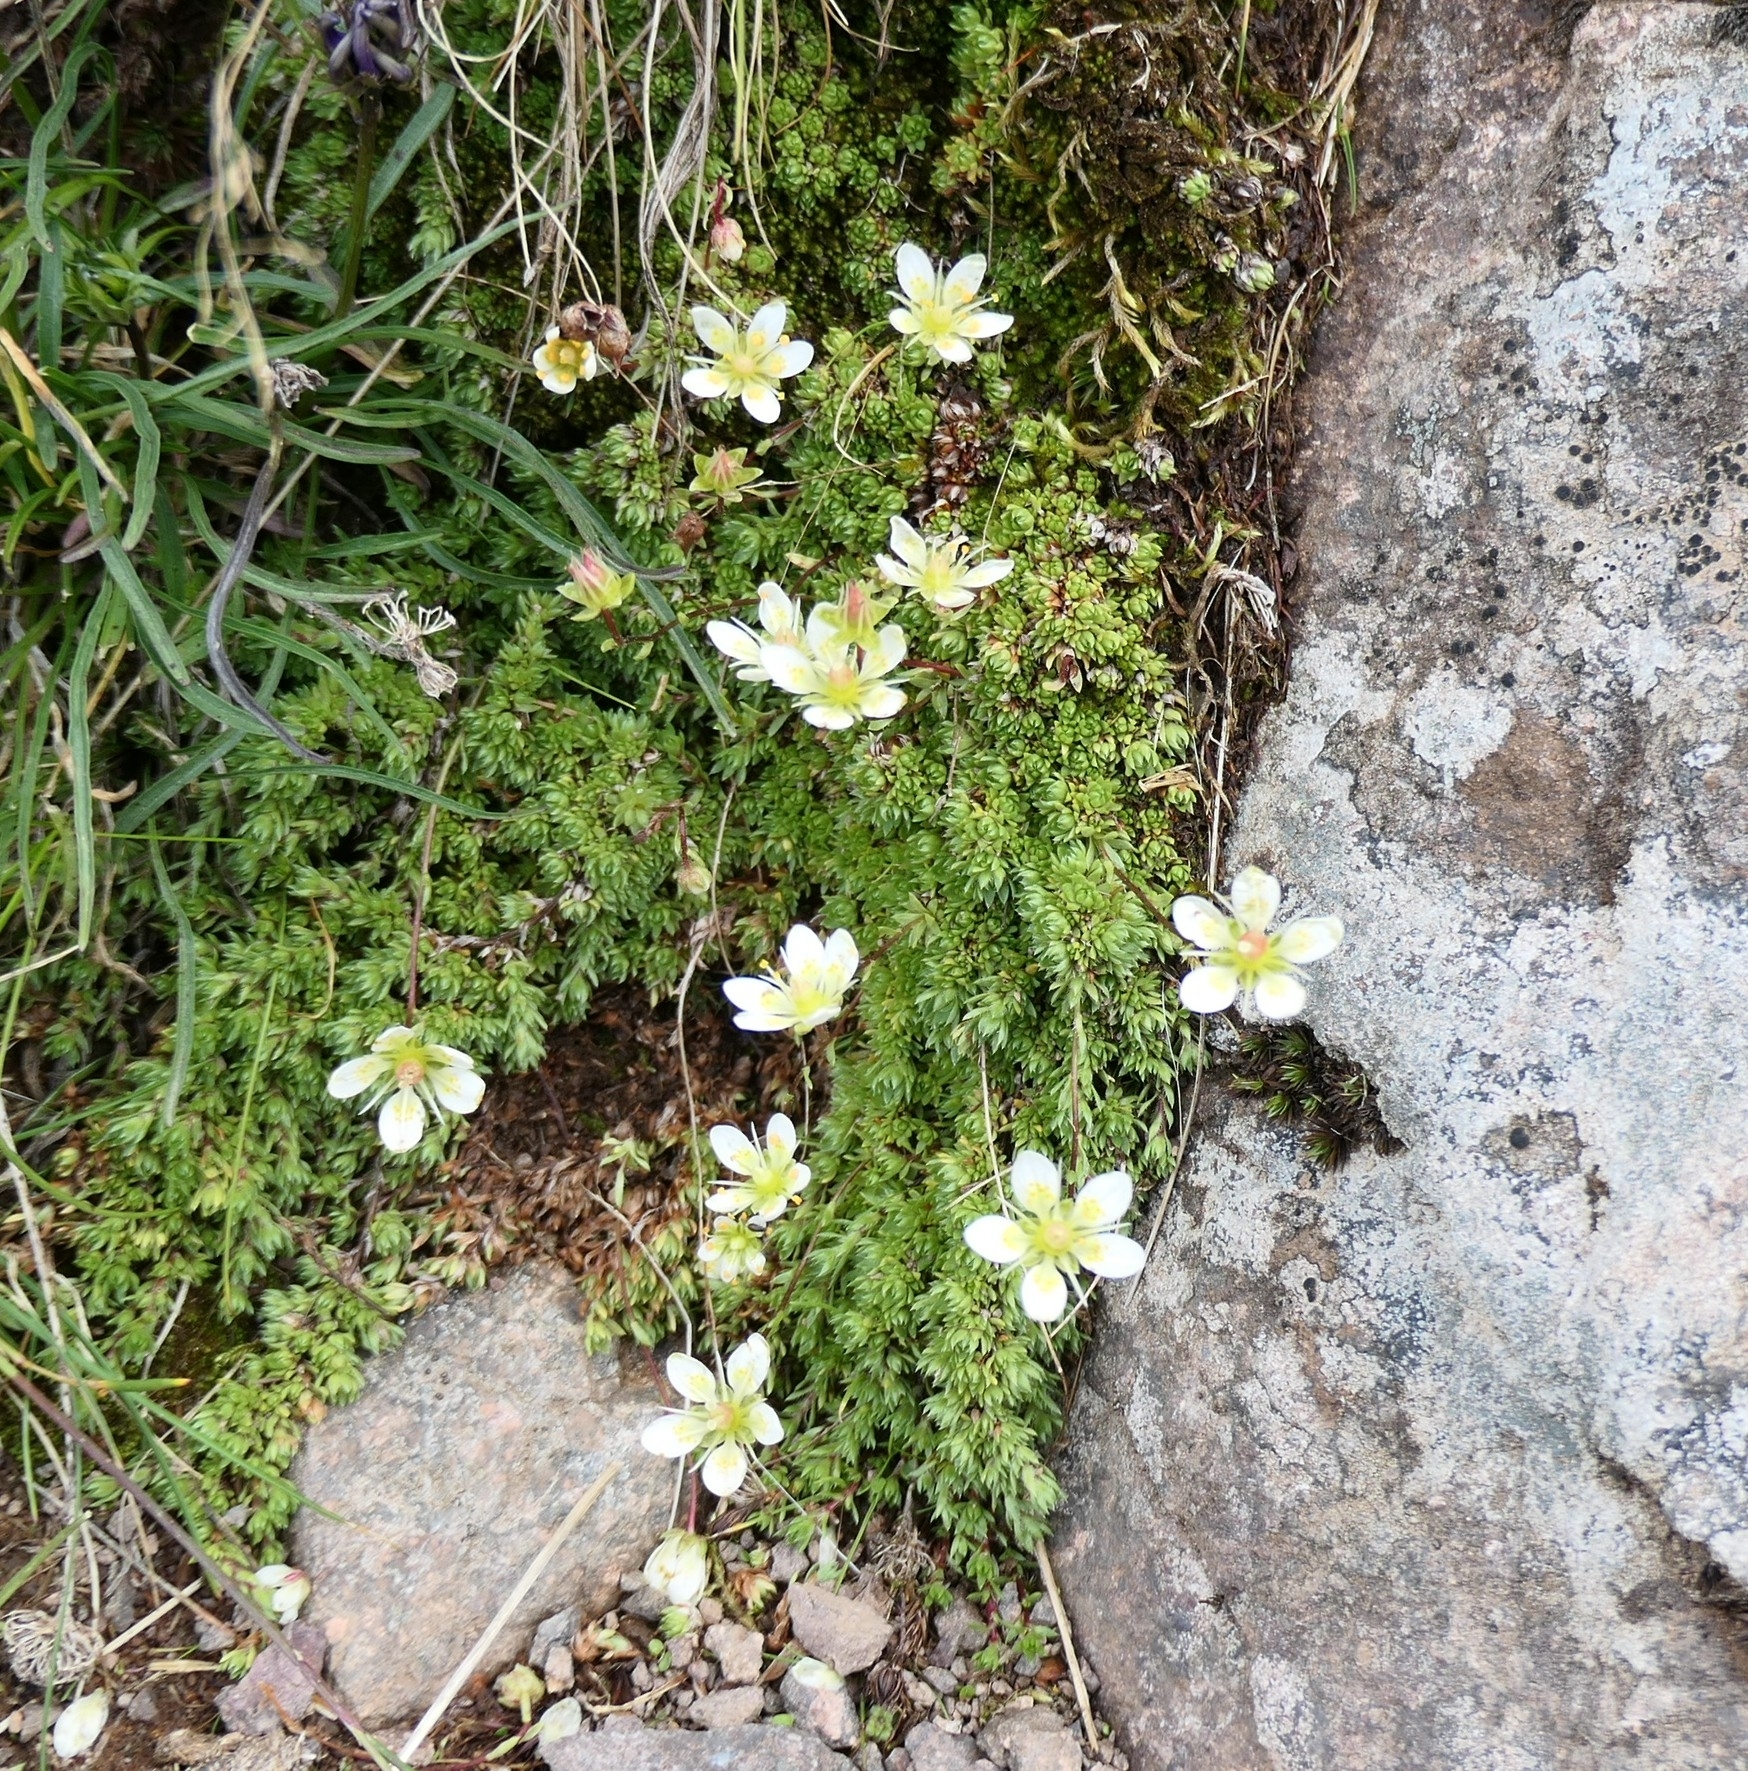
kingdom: Plantae
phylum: Tracheophyta
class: Magnoliopsida
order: Saxifragales
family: Saxifragaceae
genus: Saxifraga
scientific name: Saxifraga bryoides
